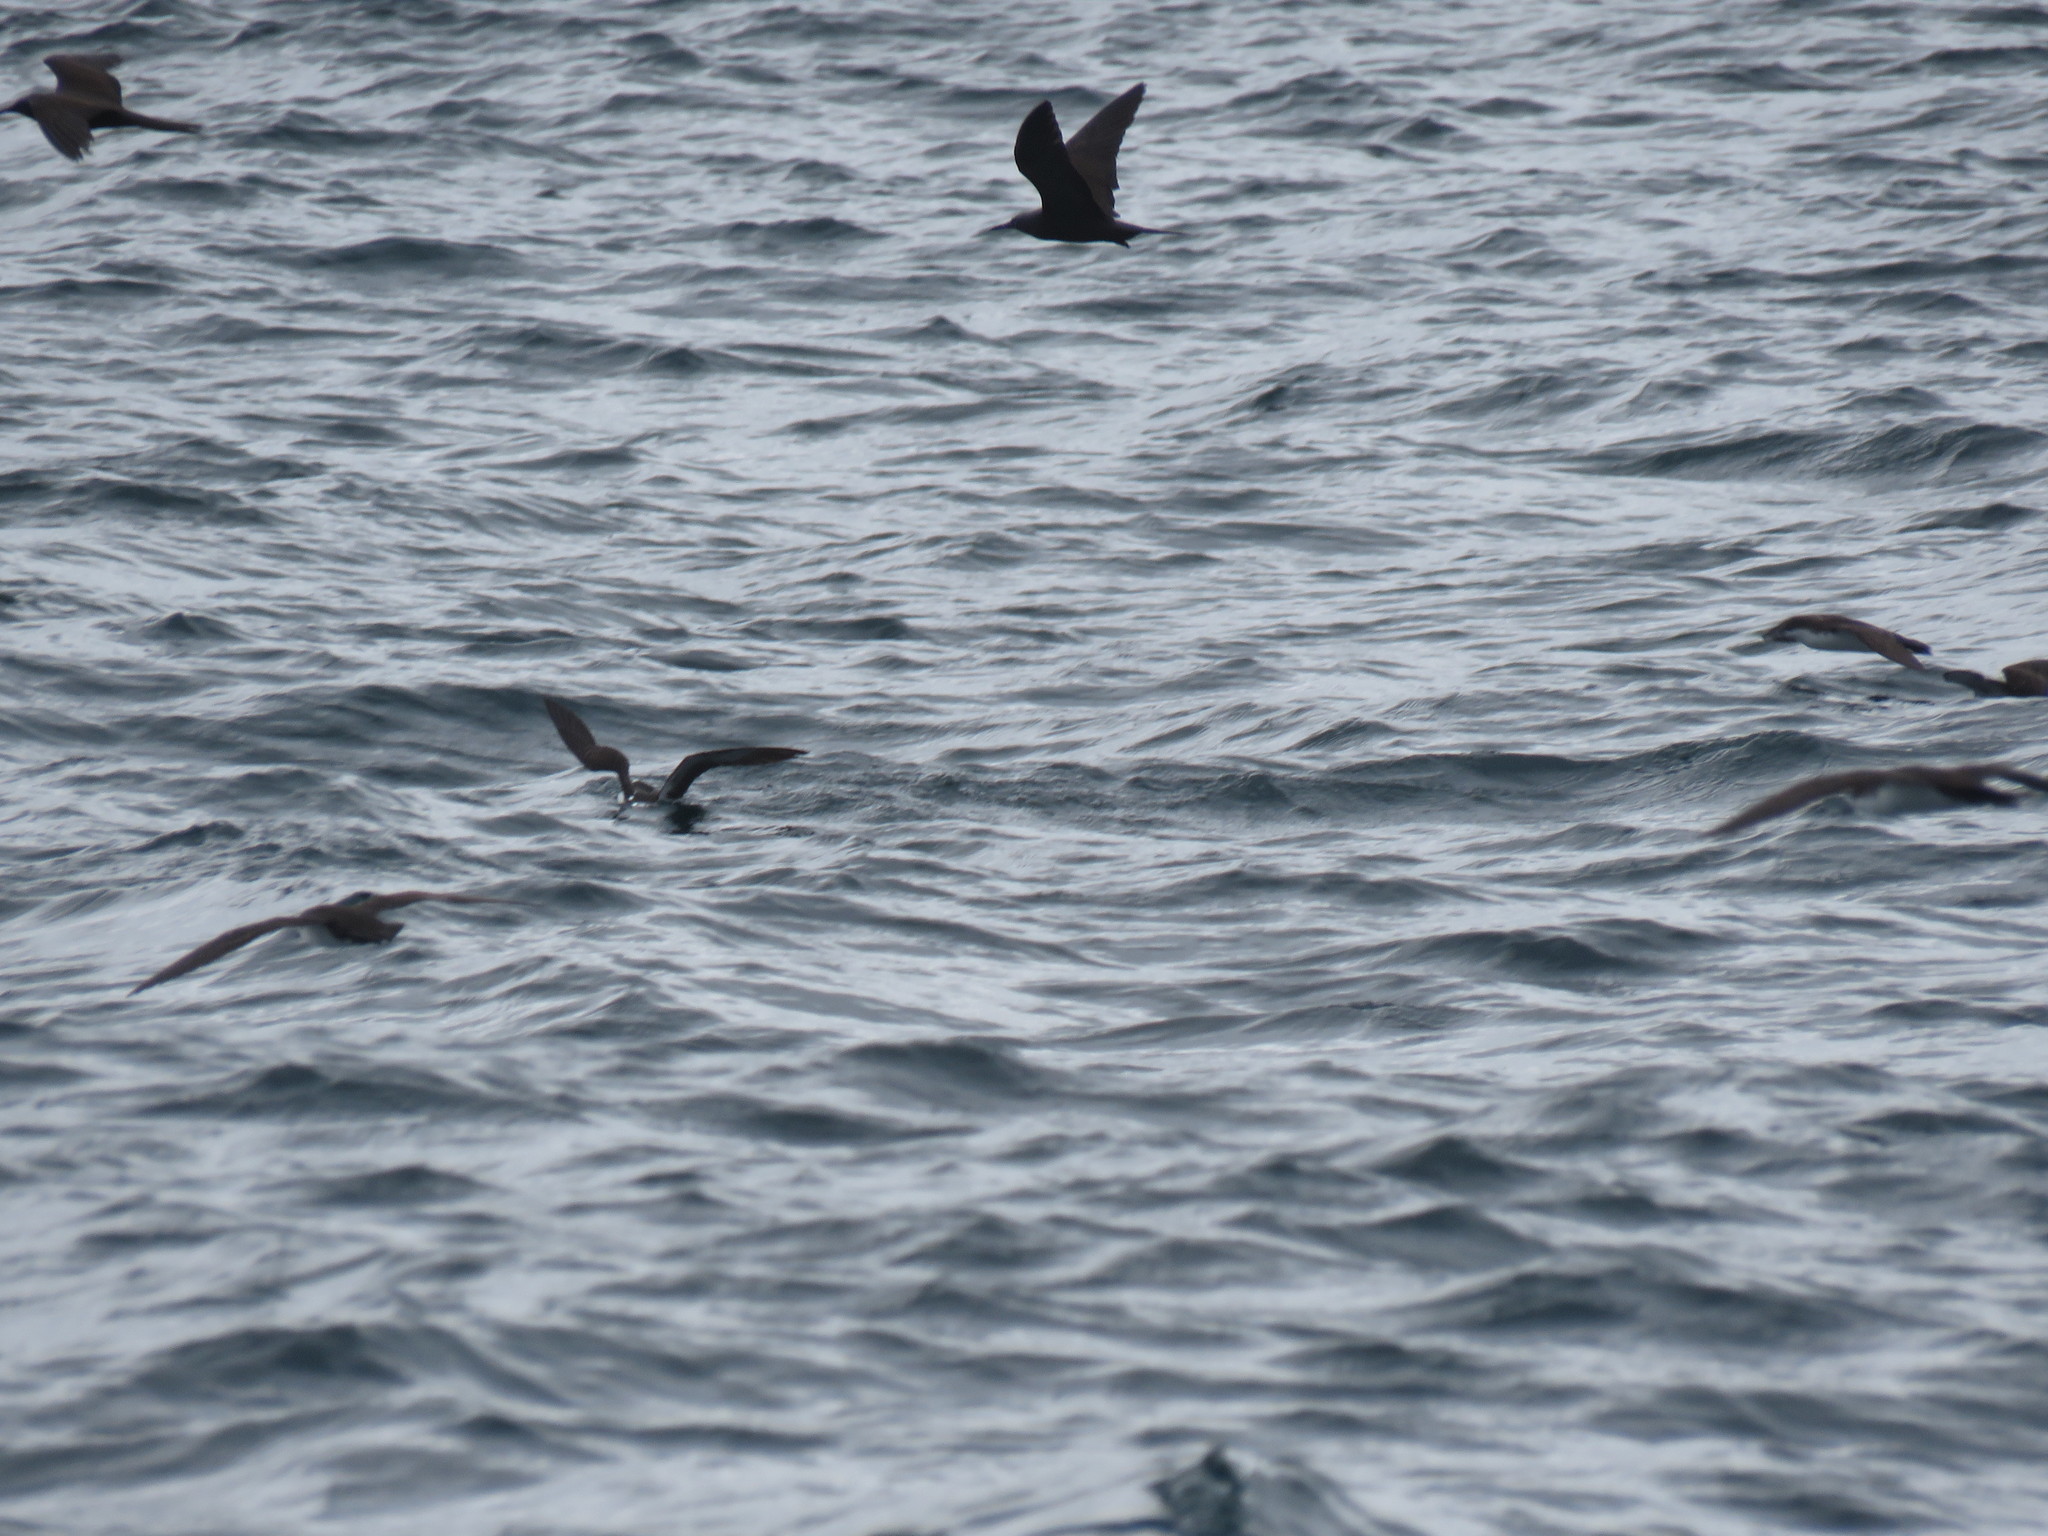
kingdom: Animalia
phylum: Chordata
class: Aves
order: Charadriiformes
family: Laridae
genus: Anous
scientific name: Anous stolidus
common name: Brown noddy
